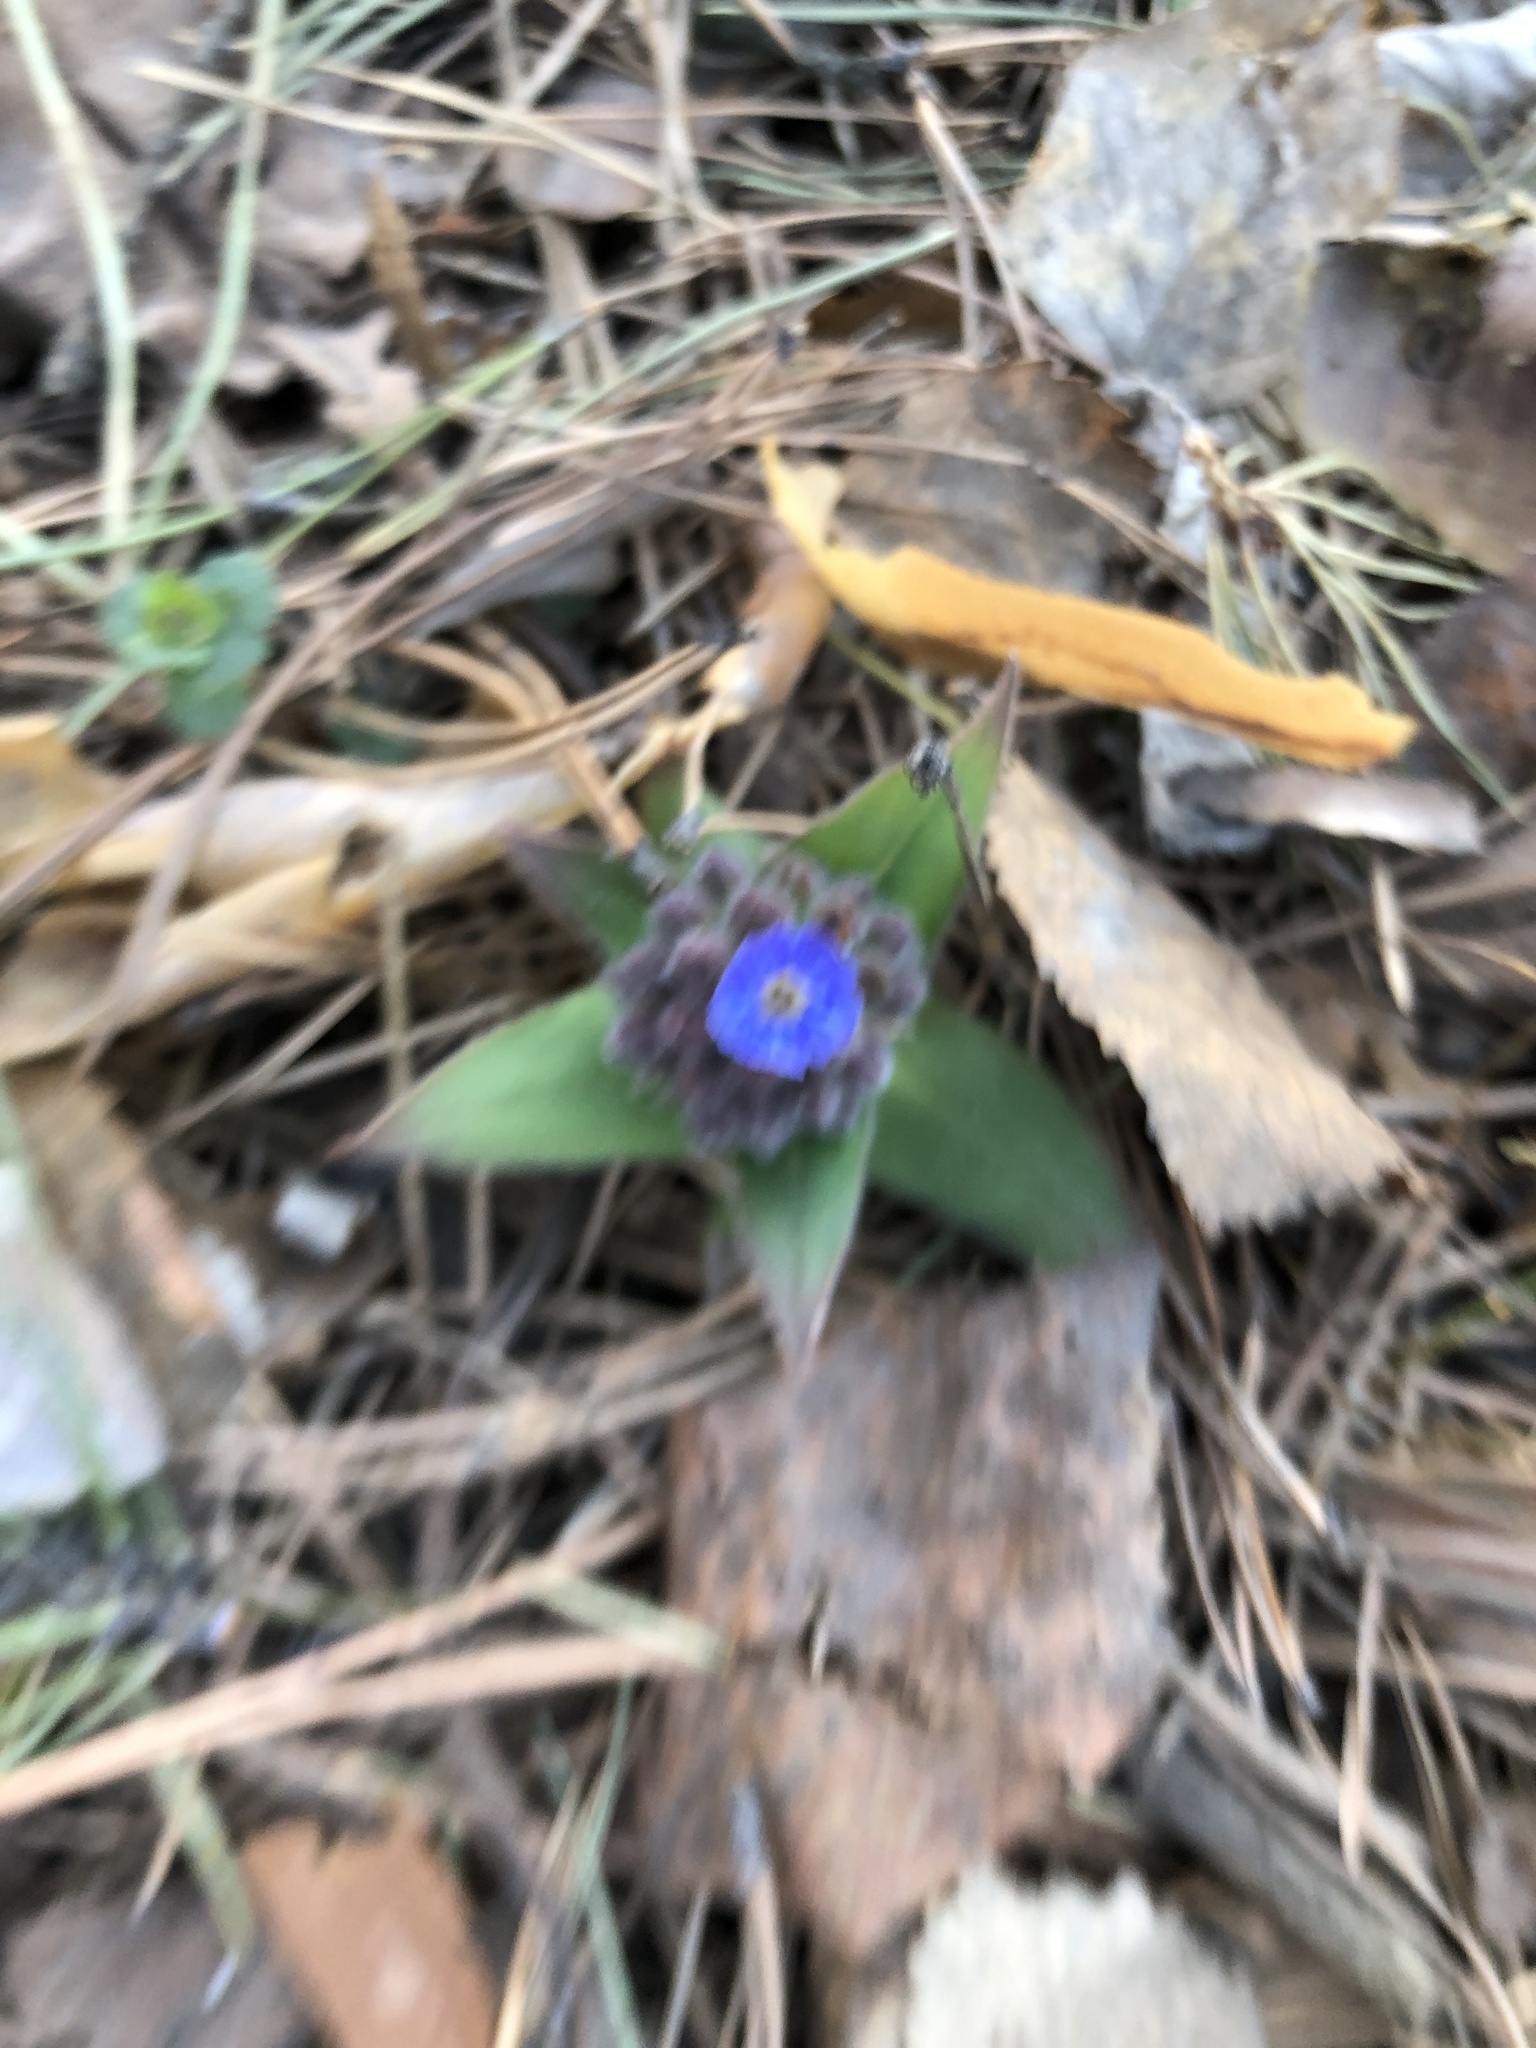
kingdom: Plantae
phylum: Tracheophyta
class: Magnoliopsida
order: Boraginales
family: Boraginaceae
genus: Pulmonaria
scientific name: Pulmonaria mollis
